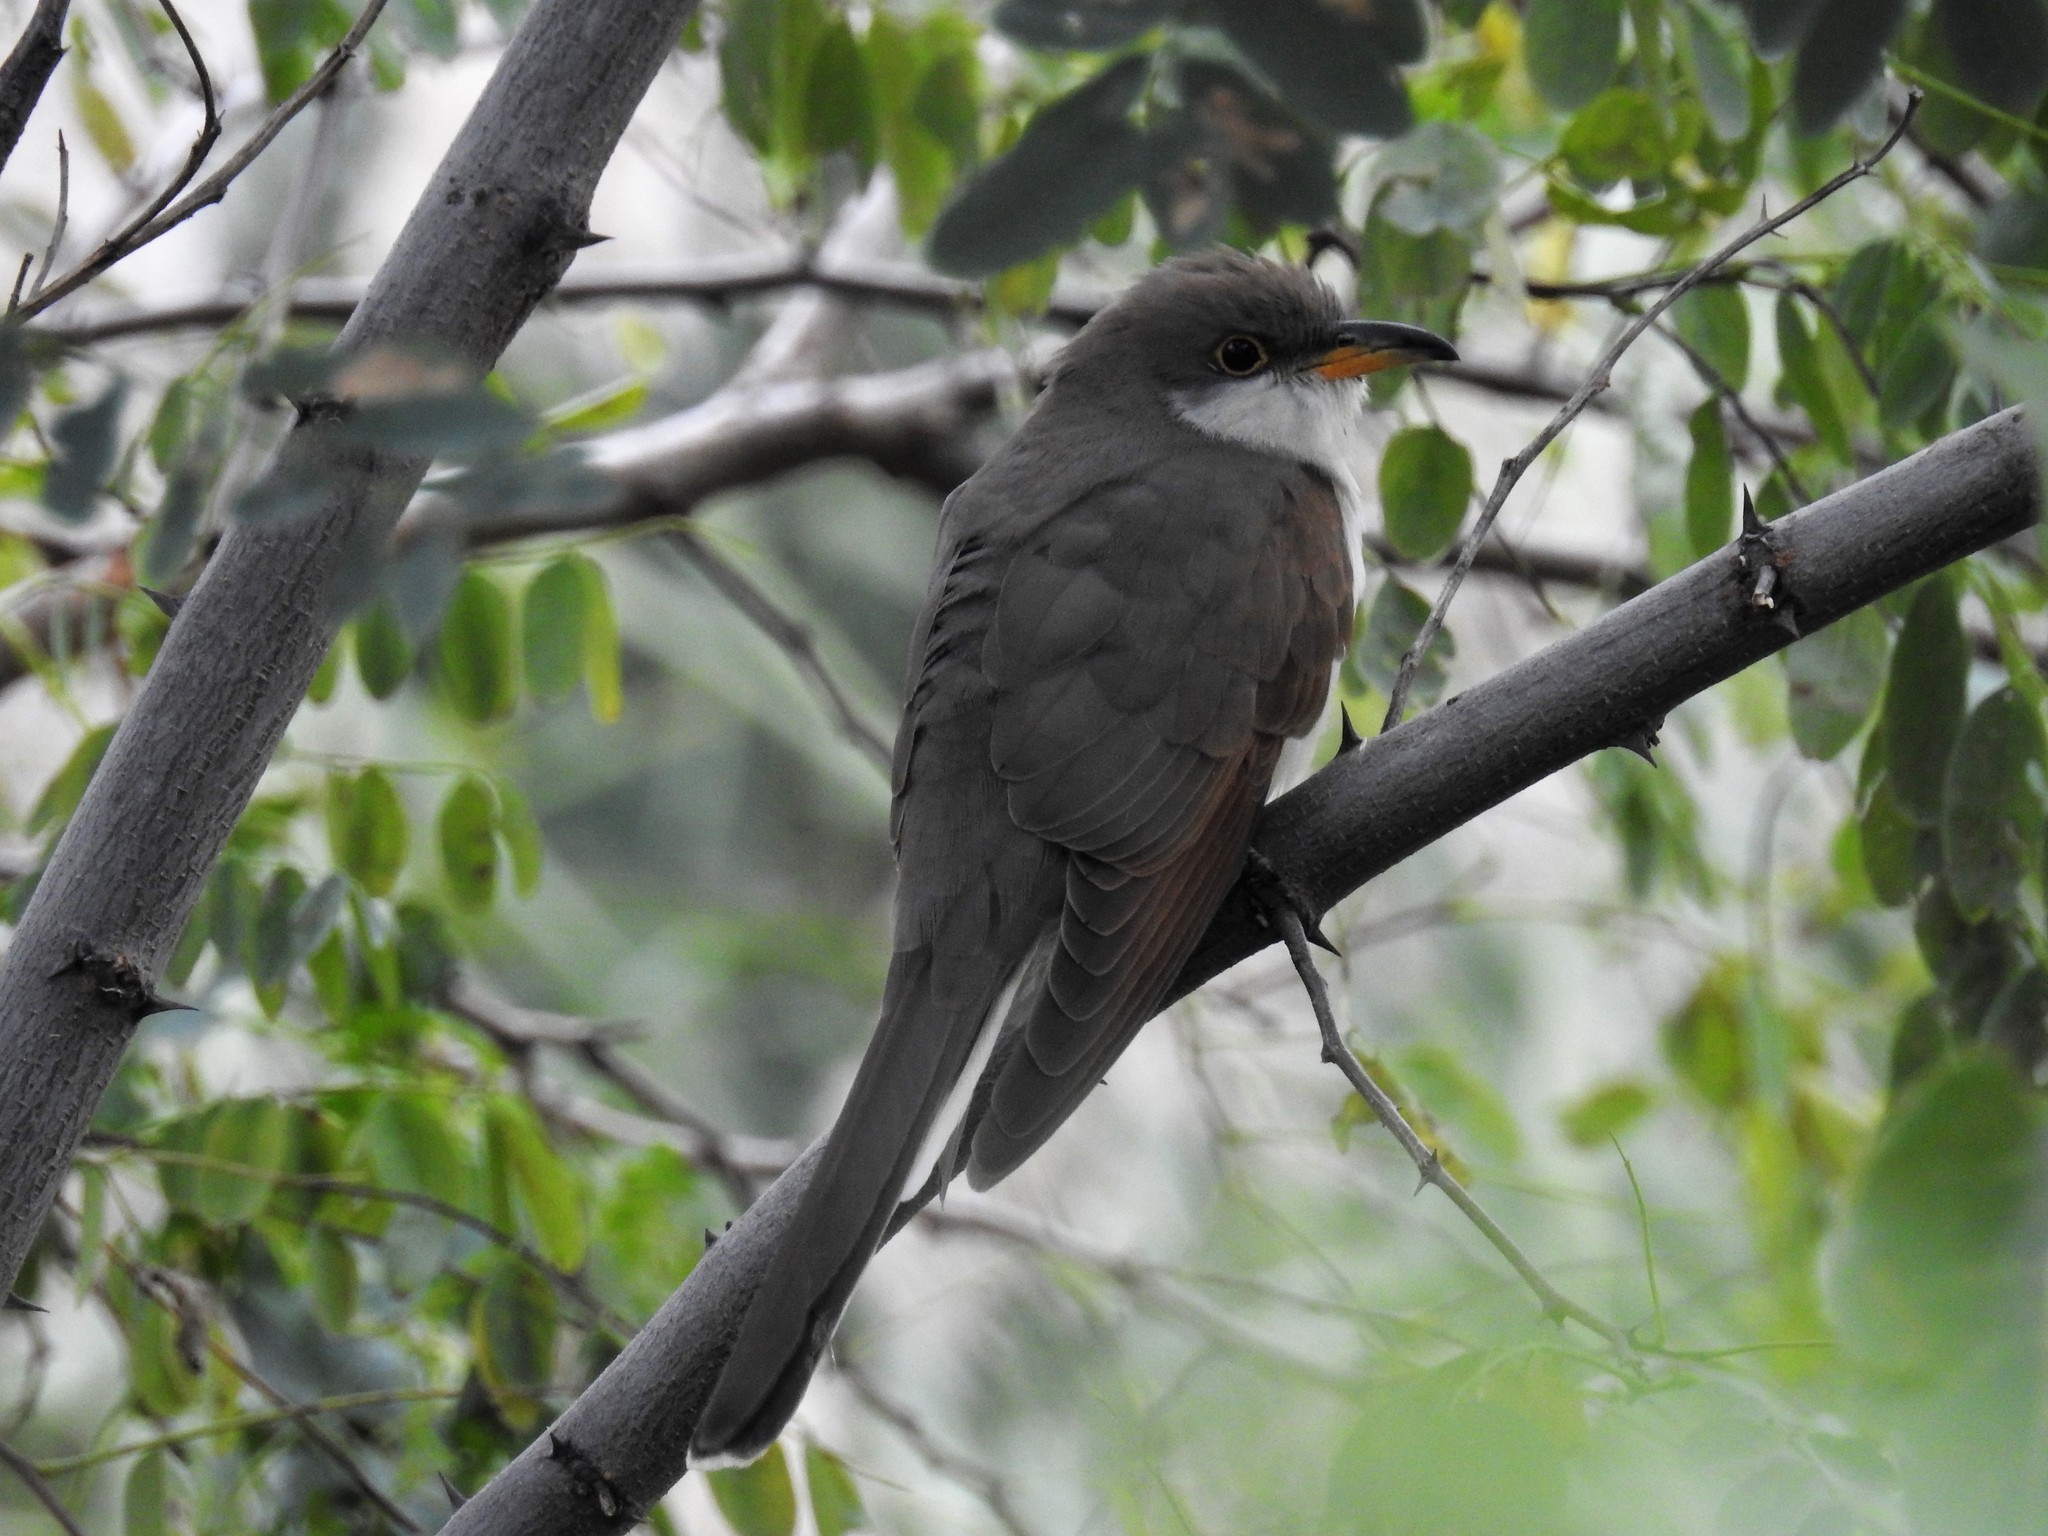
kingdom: Animalia
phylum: Chordata
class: Aves
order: Cuculiformes
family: Cuculidae
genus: Coccyzus
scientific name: Coccyzus americanus
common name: Yellow-billed cuckoo
